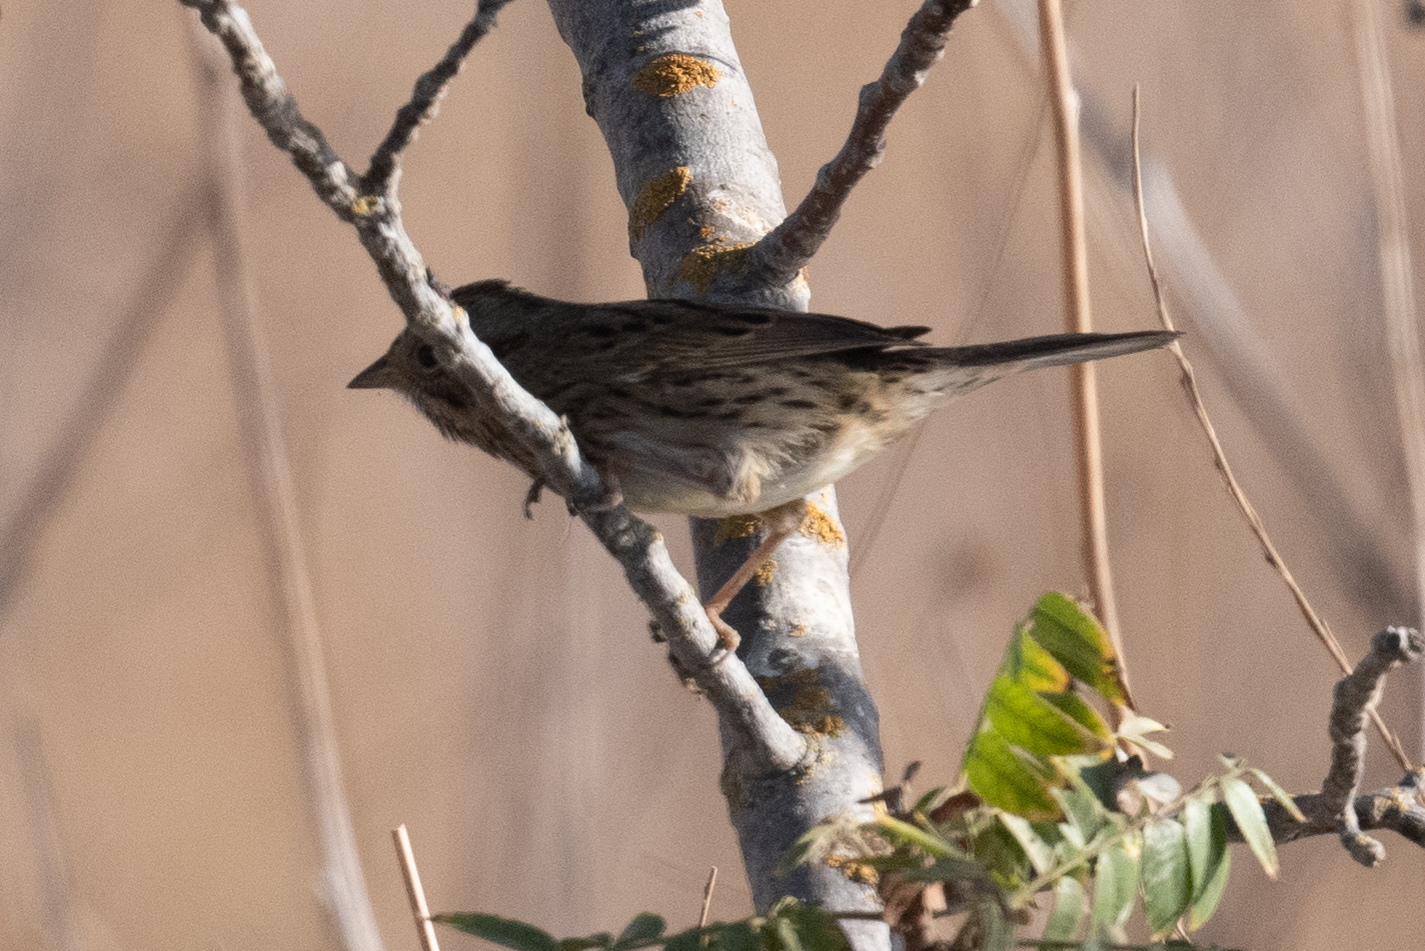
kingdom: Animalia
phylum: Chordata
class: Aves
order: Passeriformes
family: Passerellidae
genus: Melospiza
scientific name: Melospiza lincolnii
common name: Lincoln's sparrow
